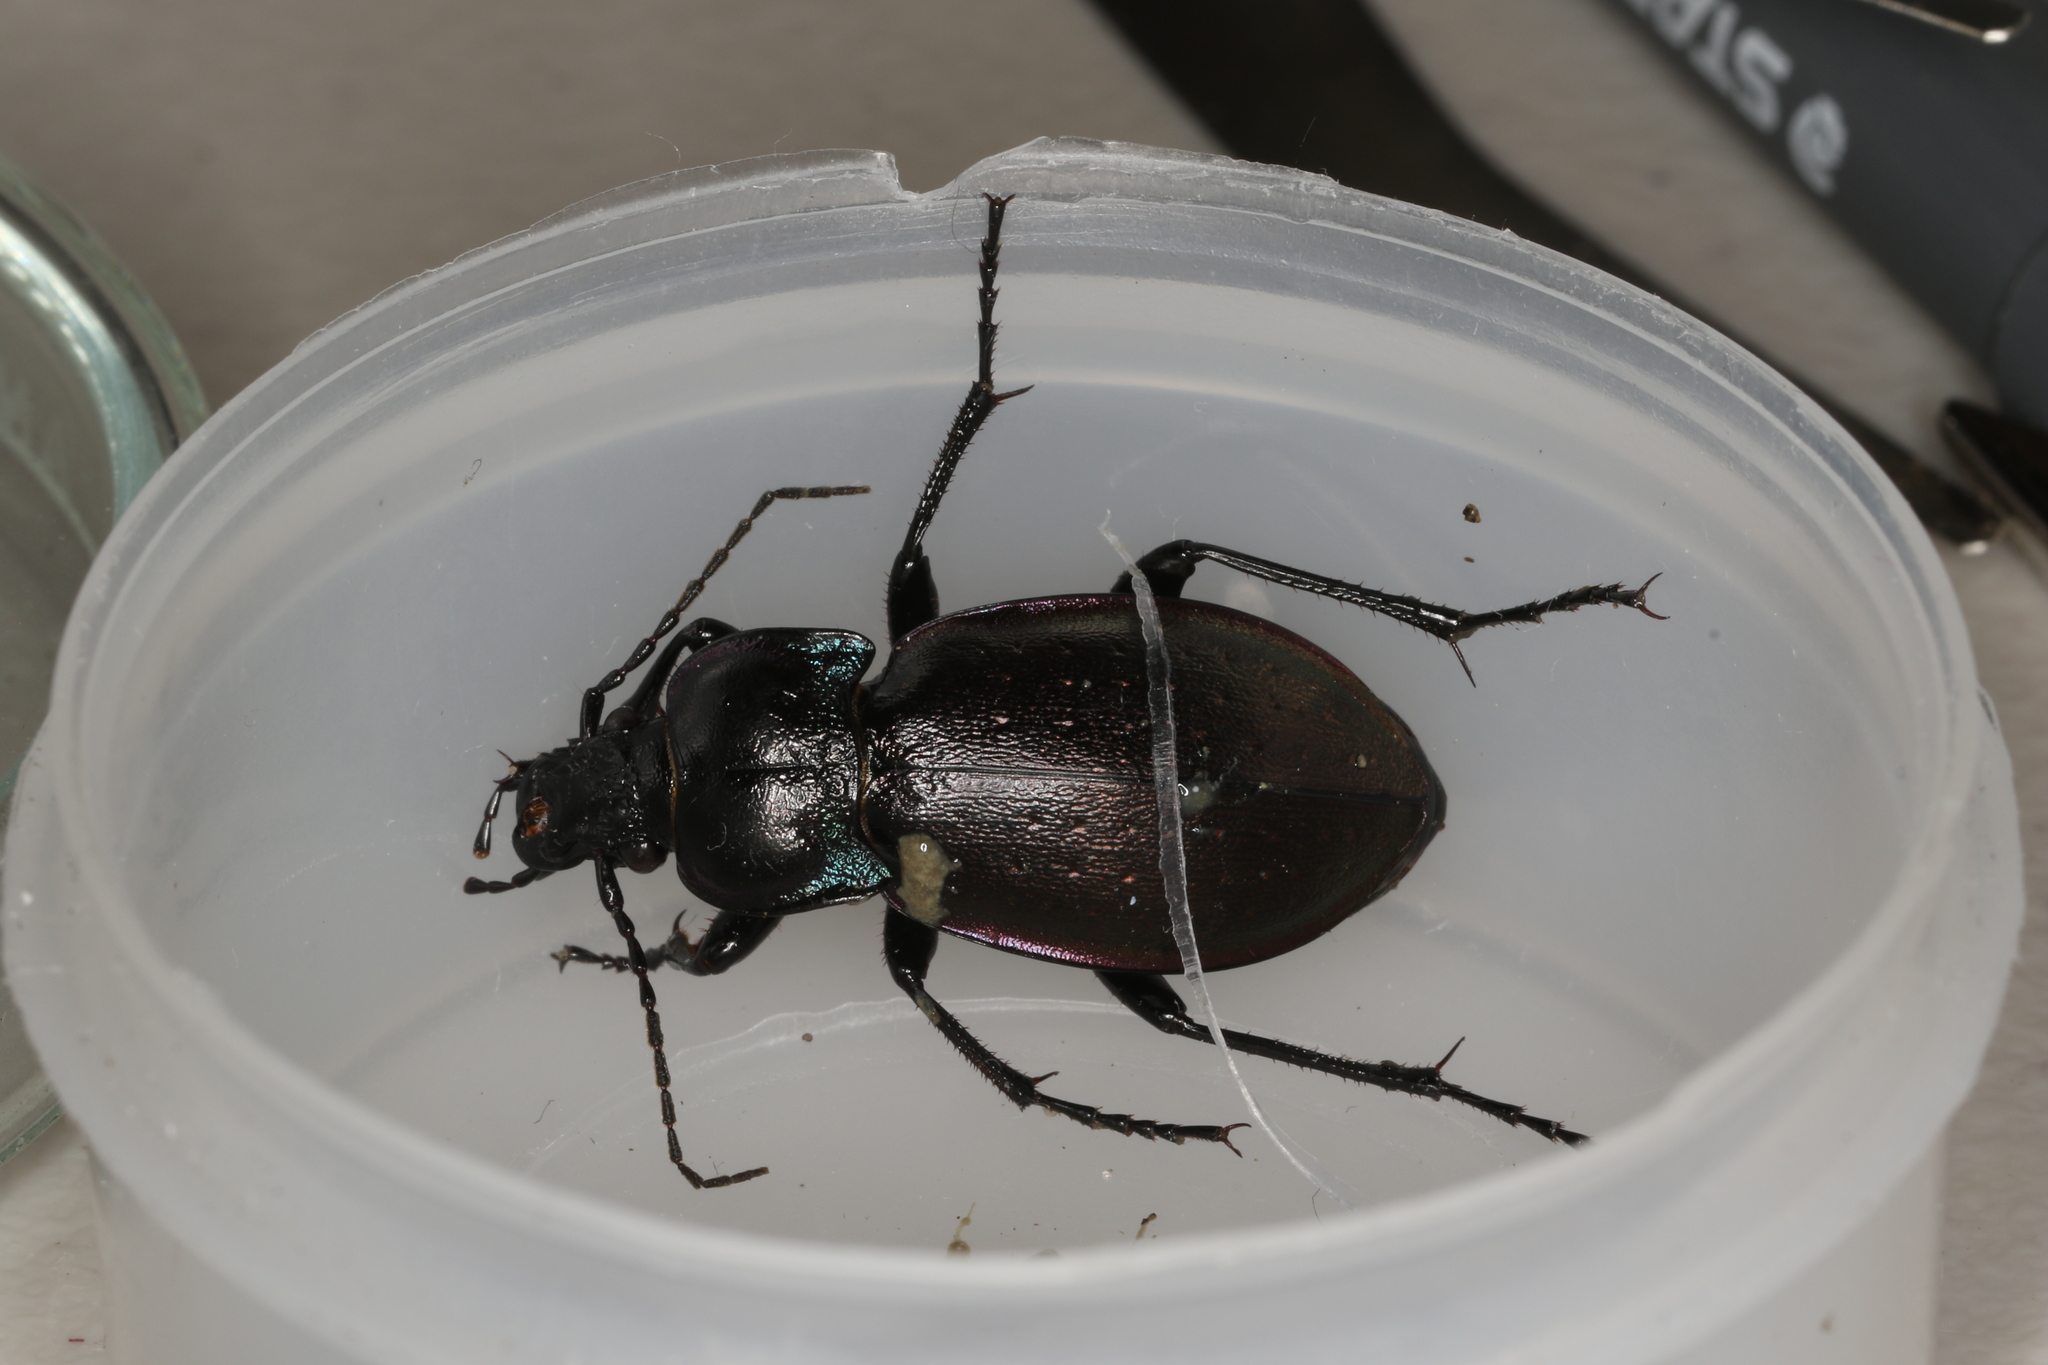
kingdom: Animalia
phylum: Arthropoda
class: Insecta
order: Coleoptera
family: Carabidae
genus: Carabus
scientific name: Carabus nemoralis
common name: European ground beetle
